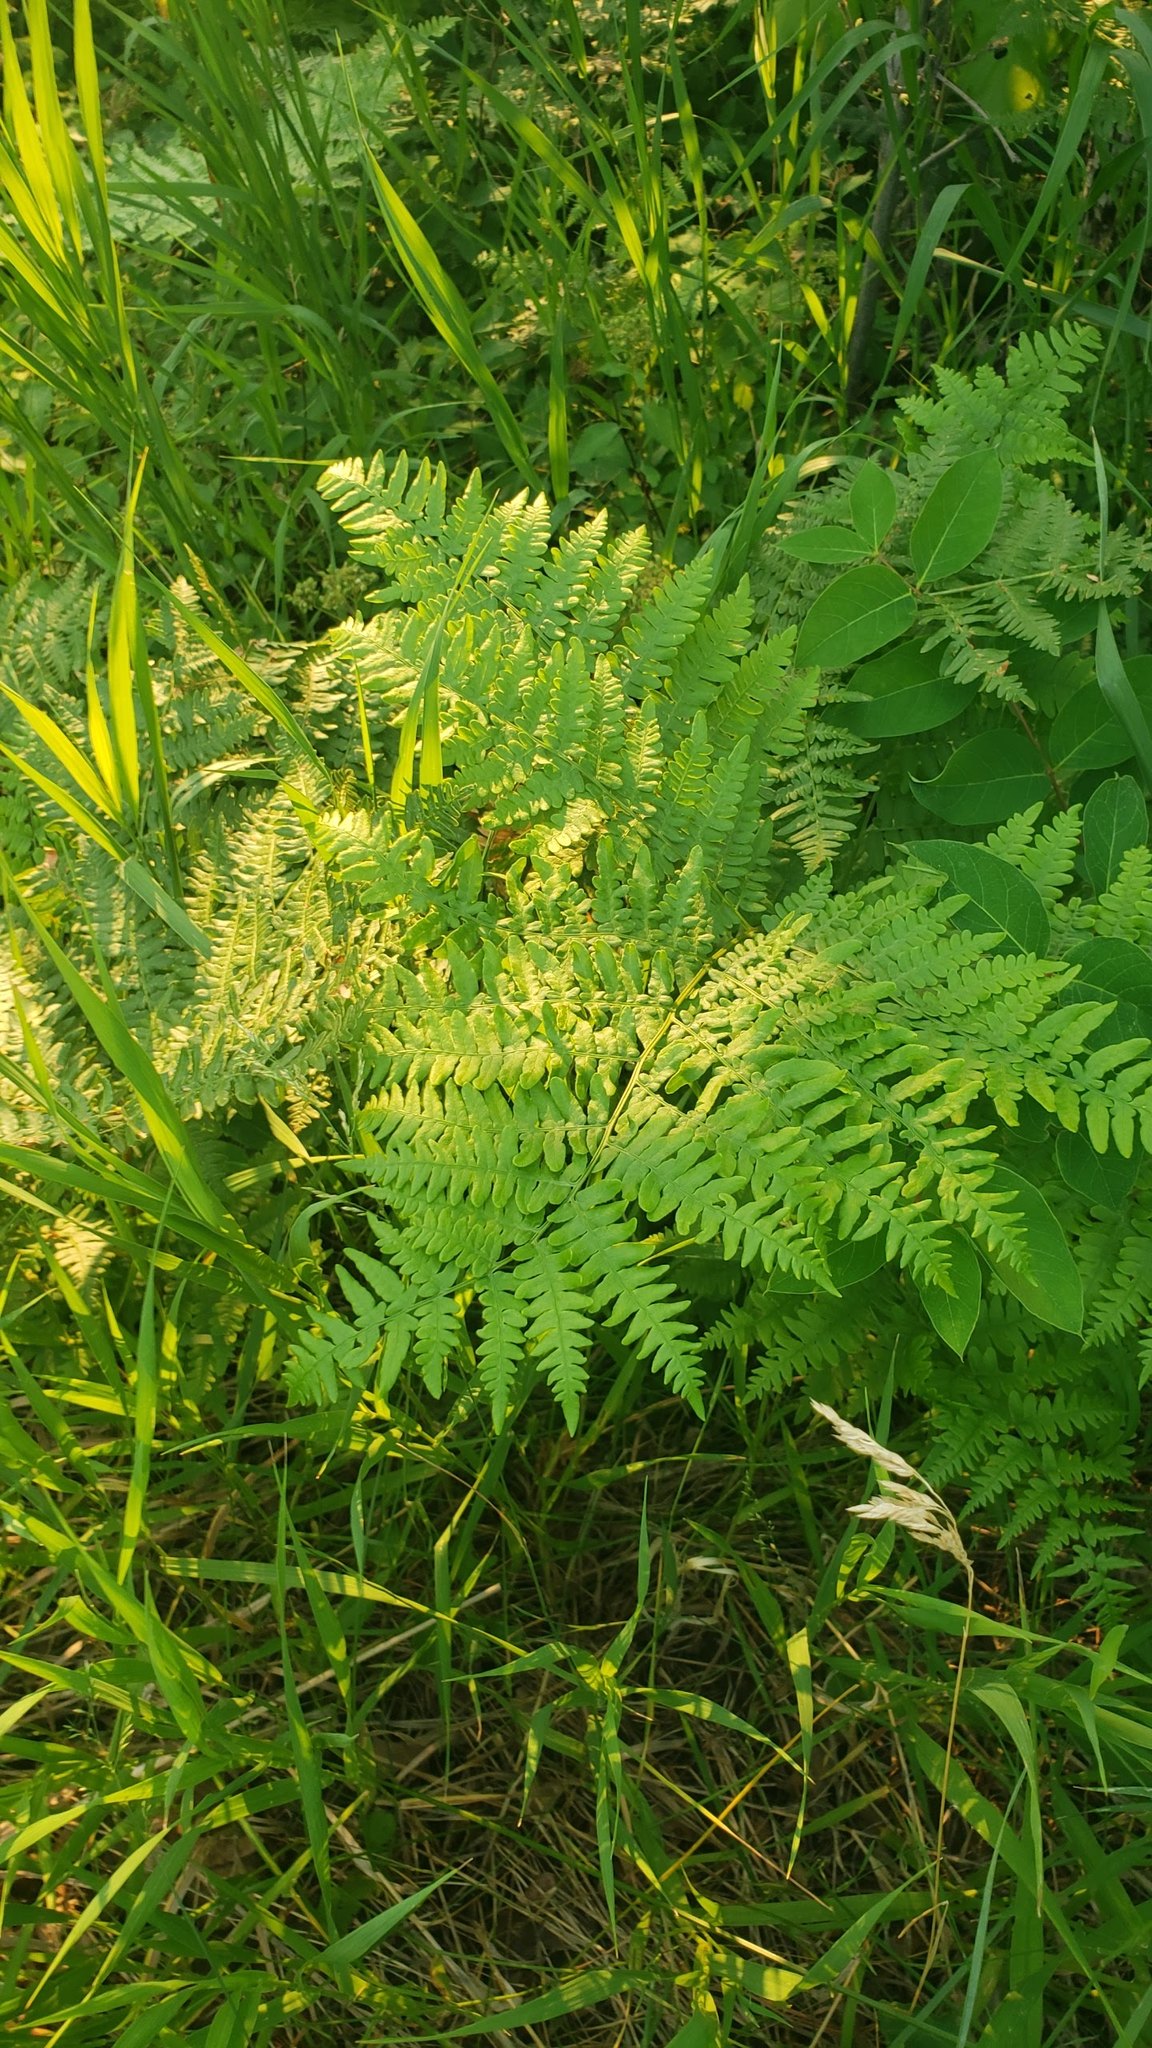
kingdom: Plantae
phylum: Tracheophyta
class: Polypodiopsida
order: Polypodiales
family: Dennstaedtiaceae
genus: Pteridium
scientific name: Pteridium aquilinum
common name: Bracken
